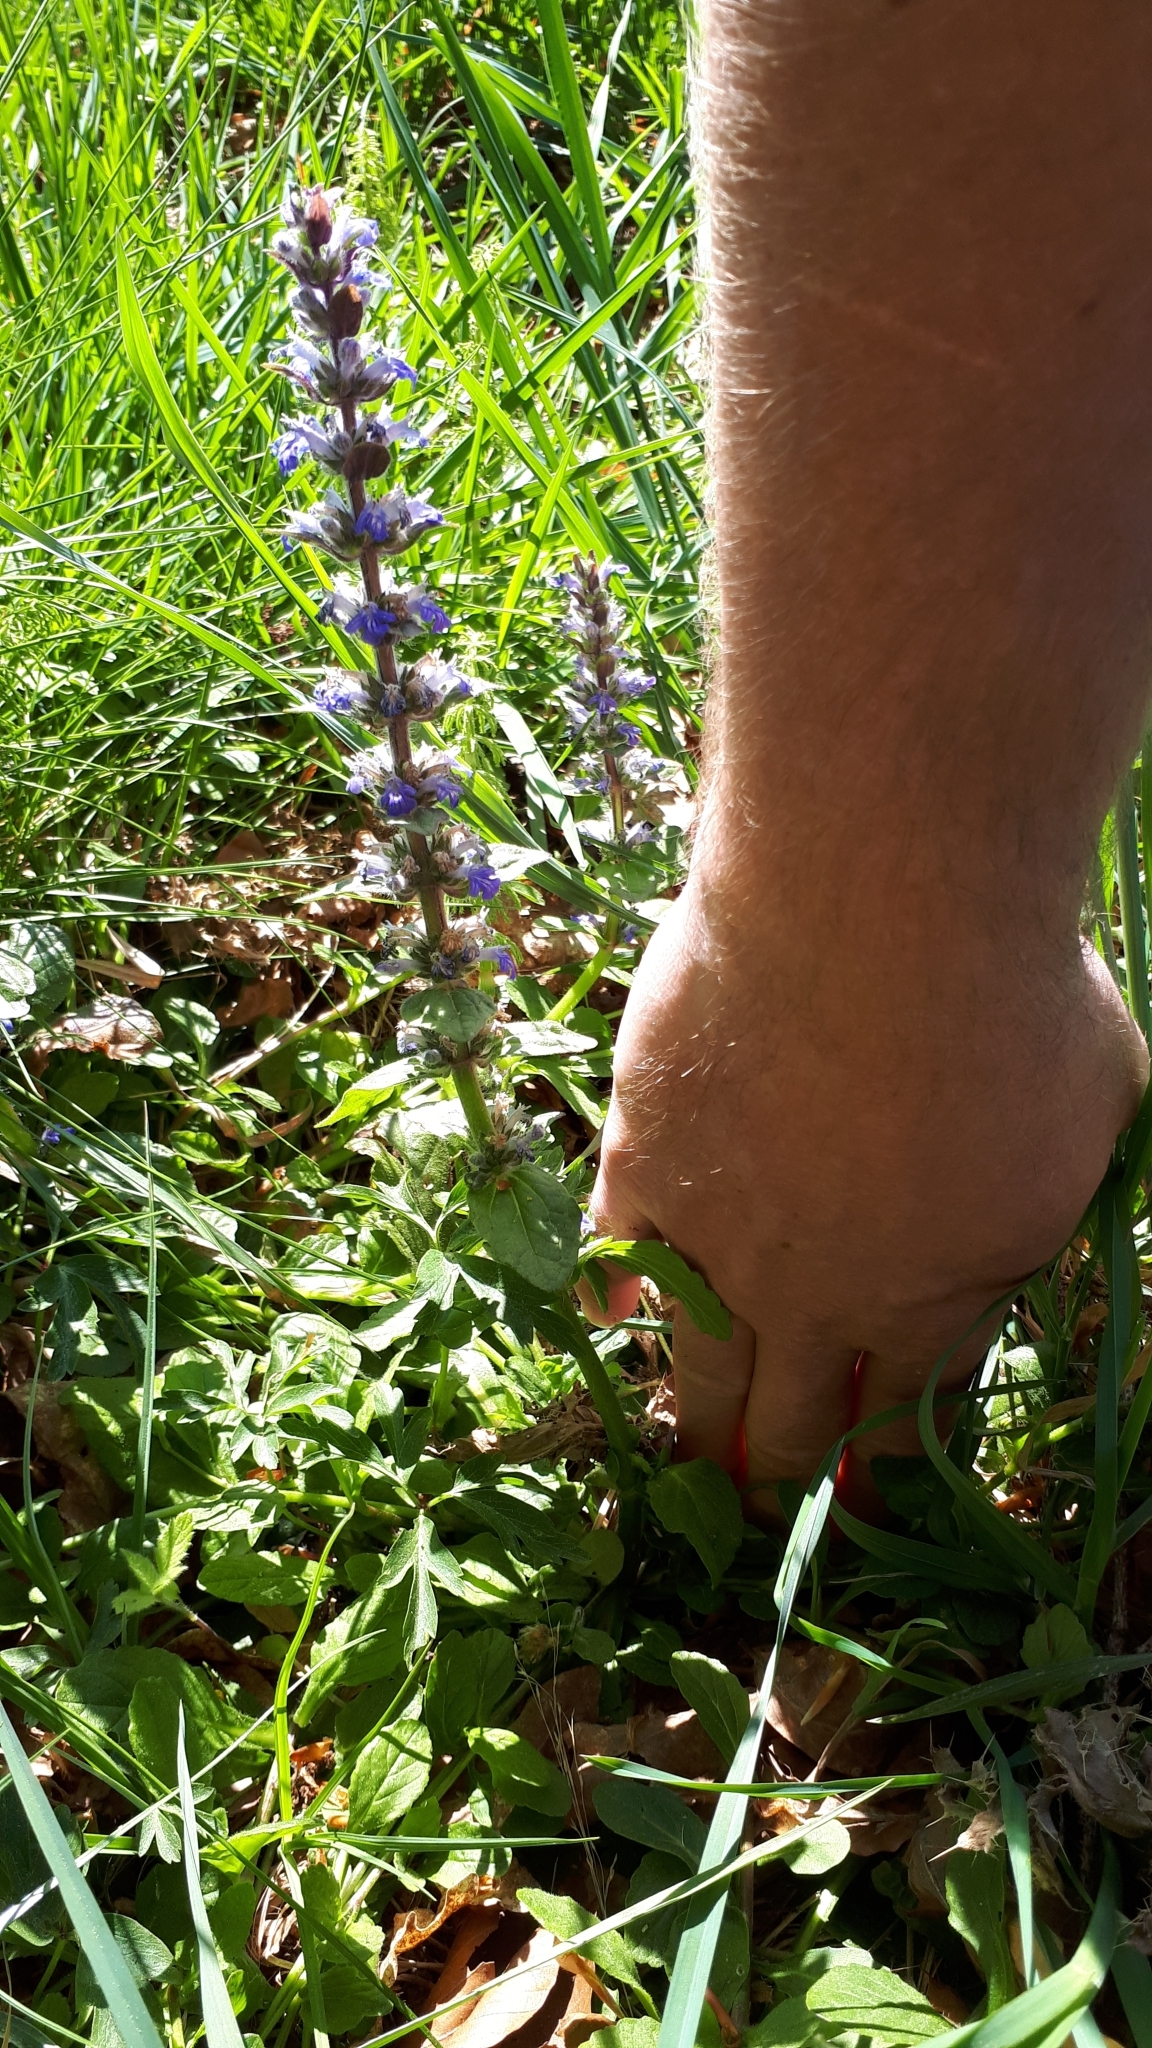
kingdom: Plantae
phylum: Tracheophyta
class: Magnoliopsida
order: Lamiales
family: Lamiaceae
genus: Ajuga
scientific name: Ajuga reptans
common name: Bugle
